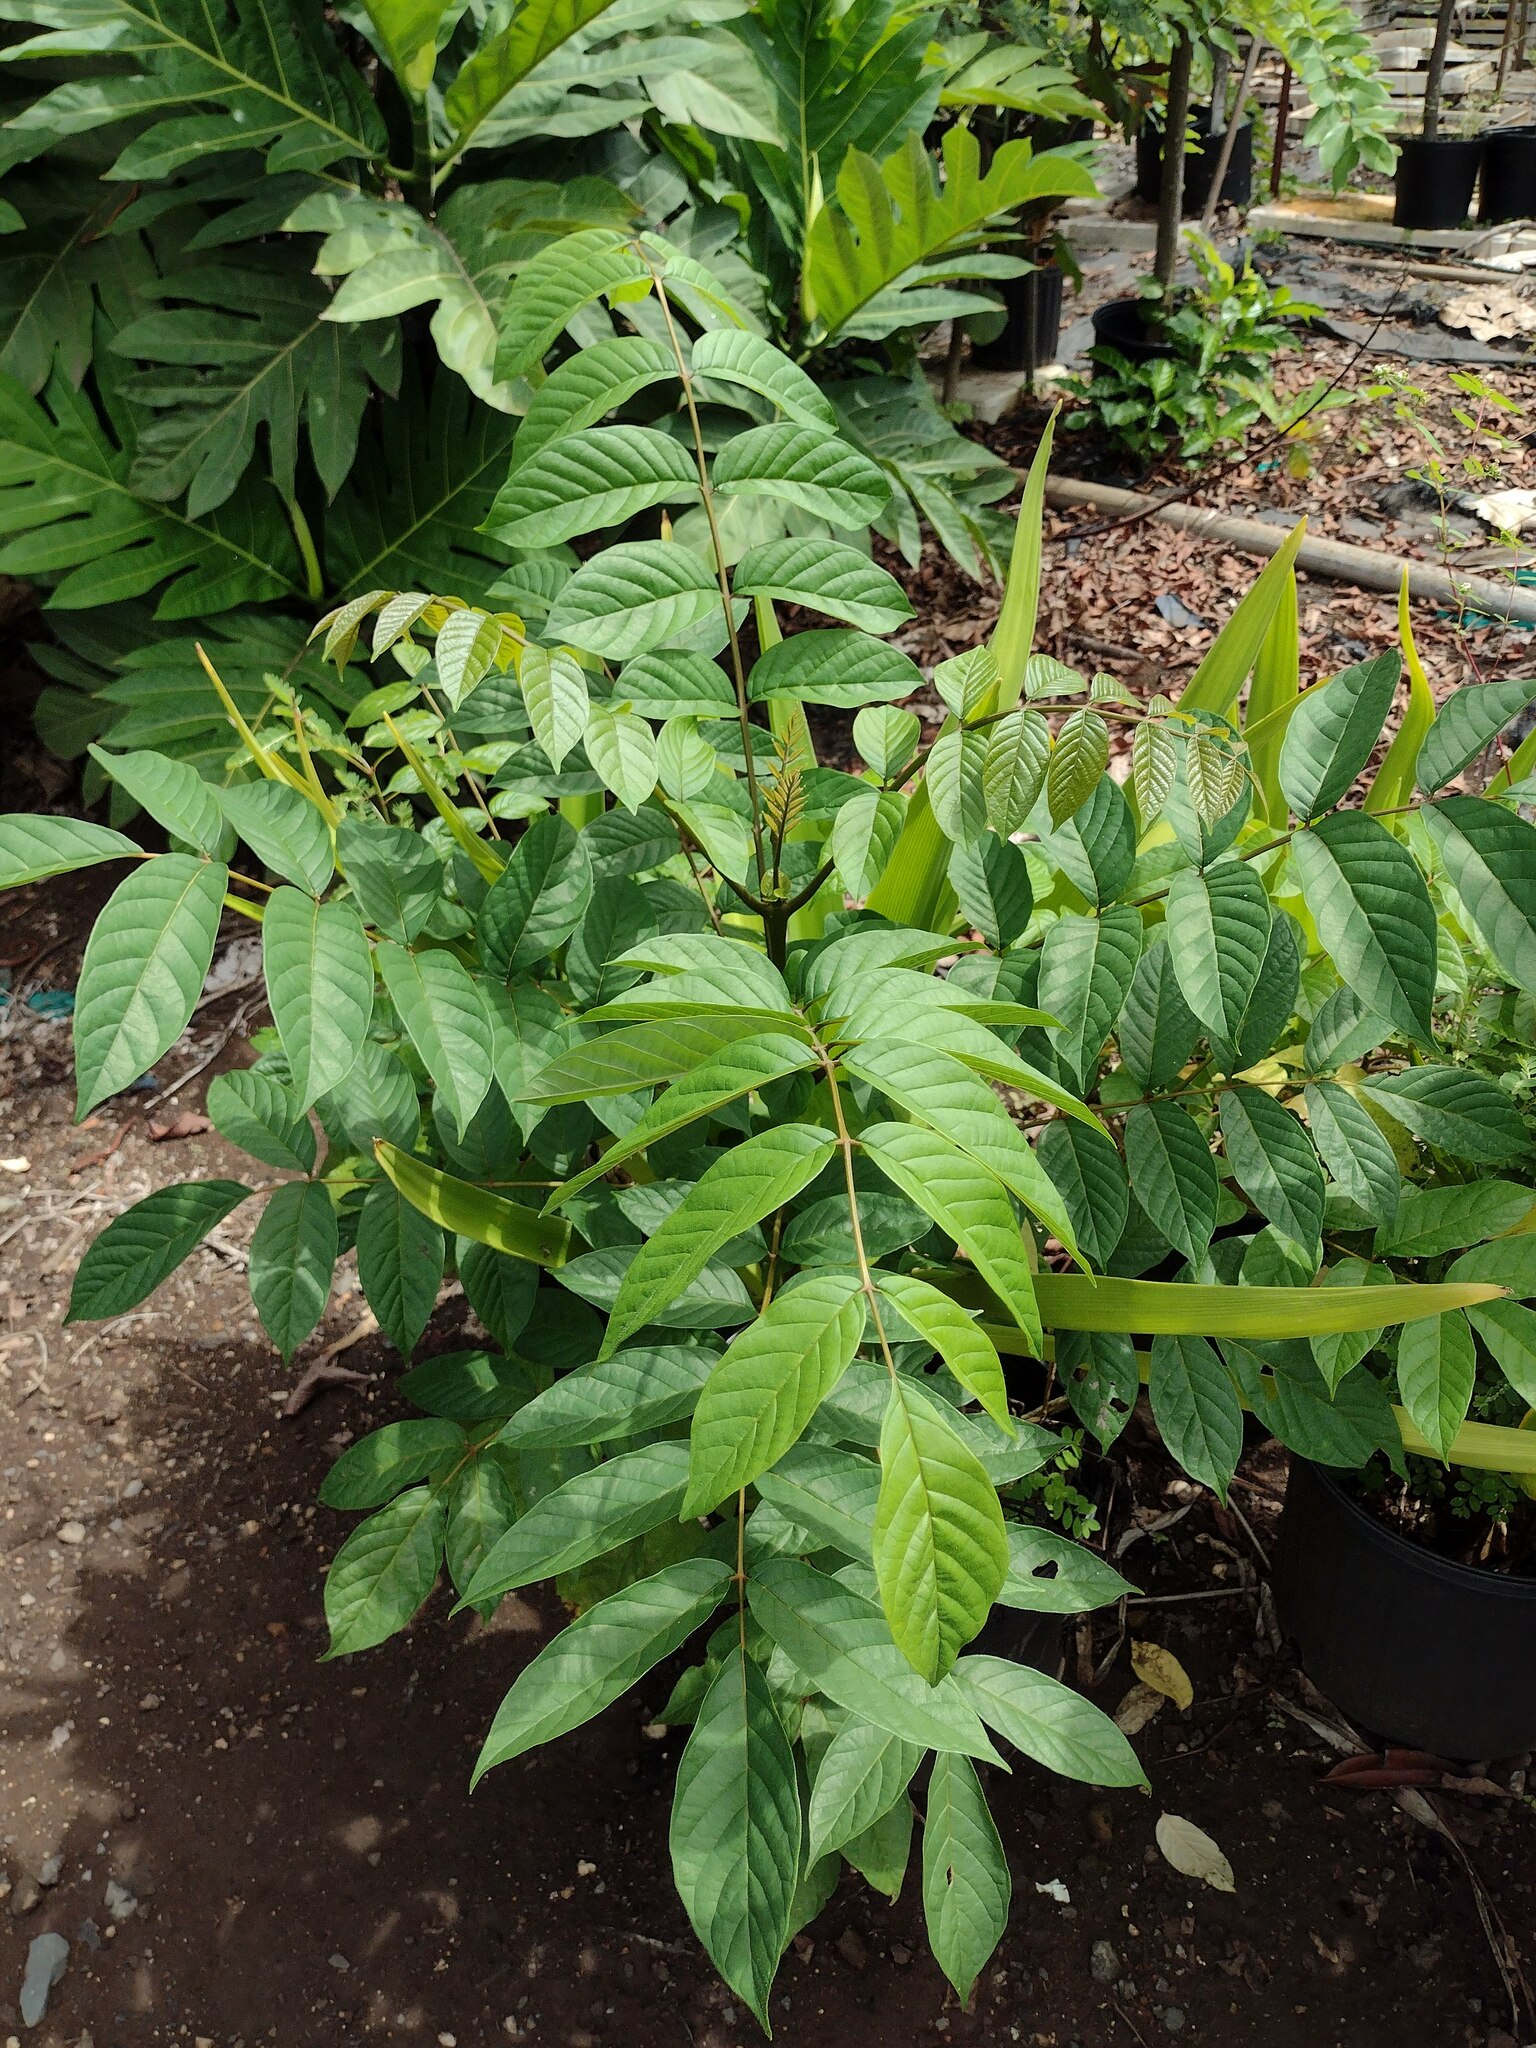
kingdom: Plantae
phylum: Tracheophyta
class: Magnoliopsida
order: Lamiales
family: Bignoniaceae
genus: Spathodea
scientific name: Spathodea campanulata
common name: African tuliptree
